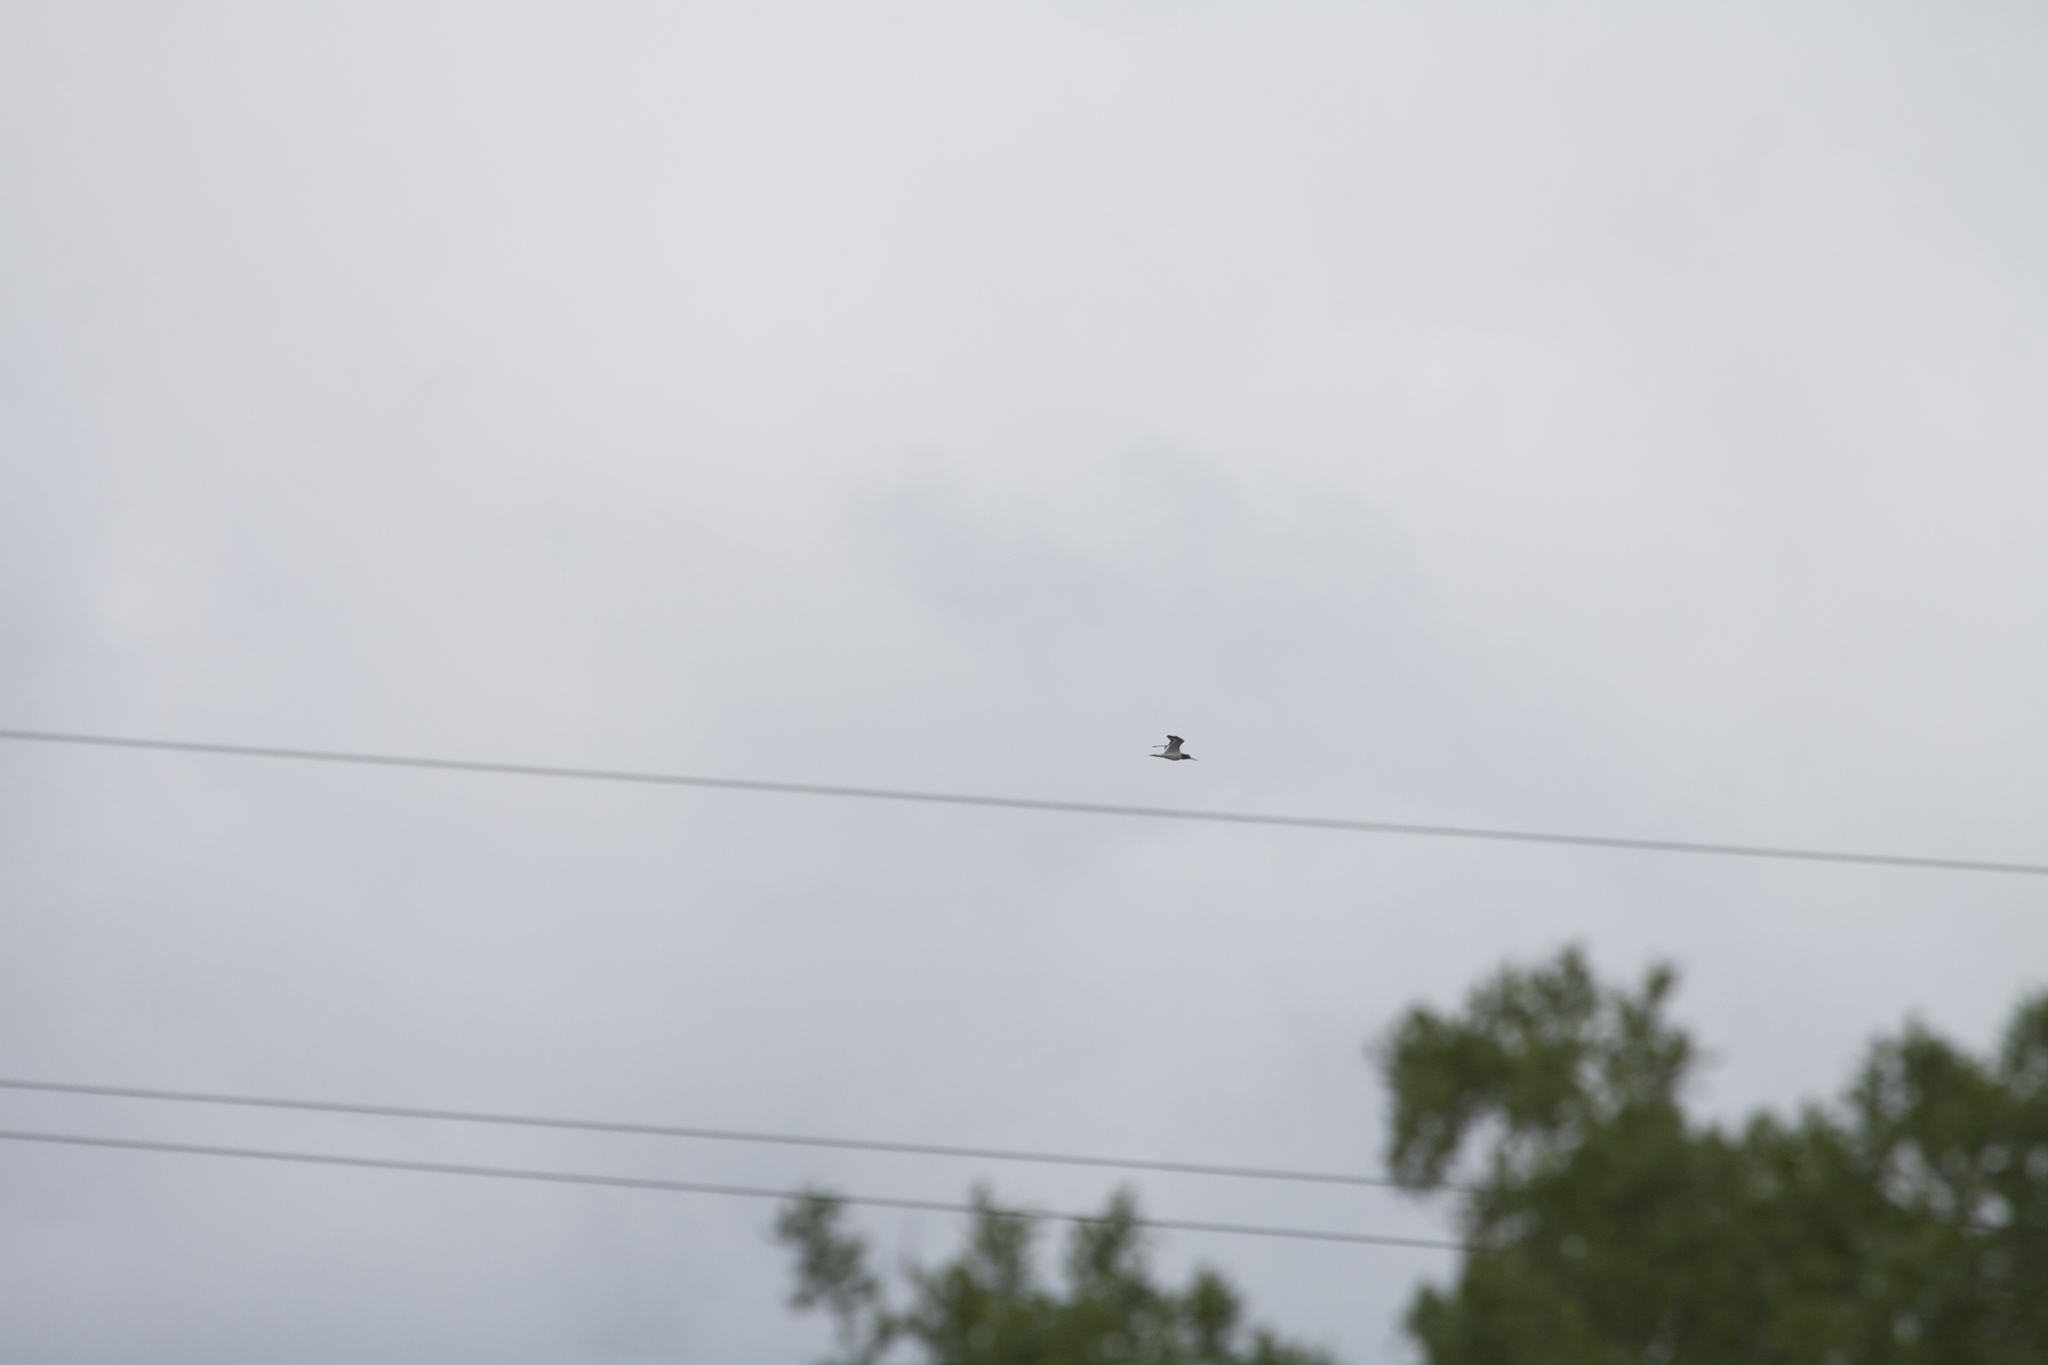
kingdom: Animalia
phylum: Chordata
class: Aves
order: Charadriiformes
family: Haematopodidae
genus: Haematopus
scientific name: Haematopus ostralegus
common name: Eurasian oystercatcher
